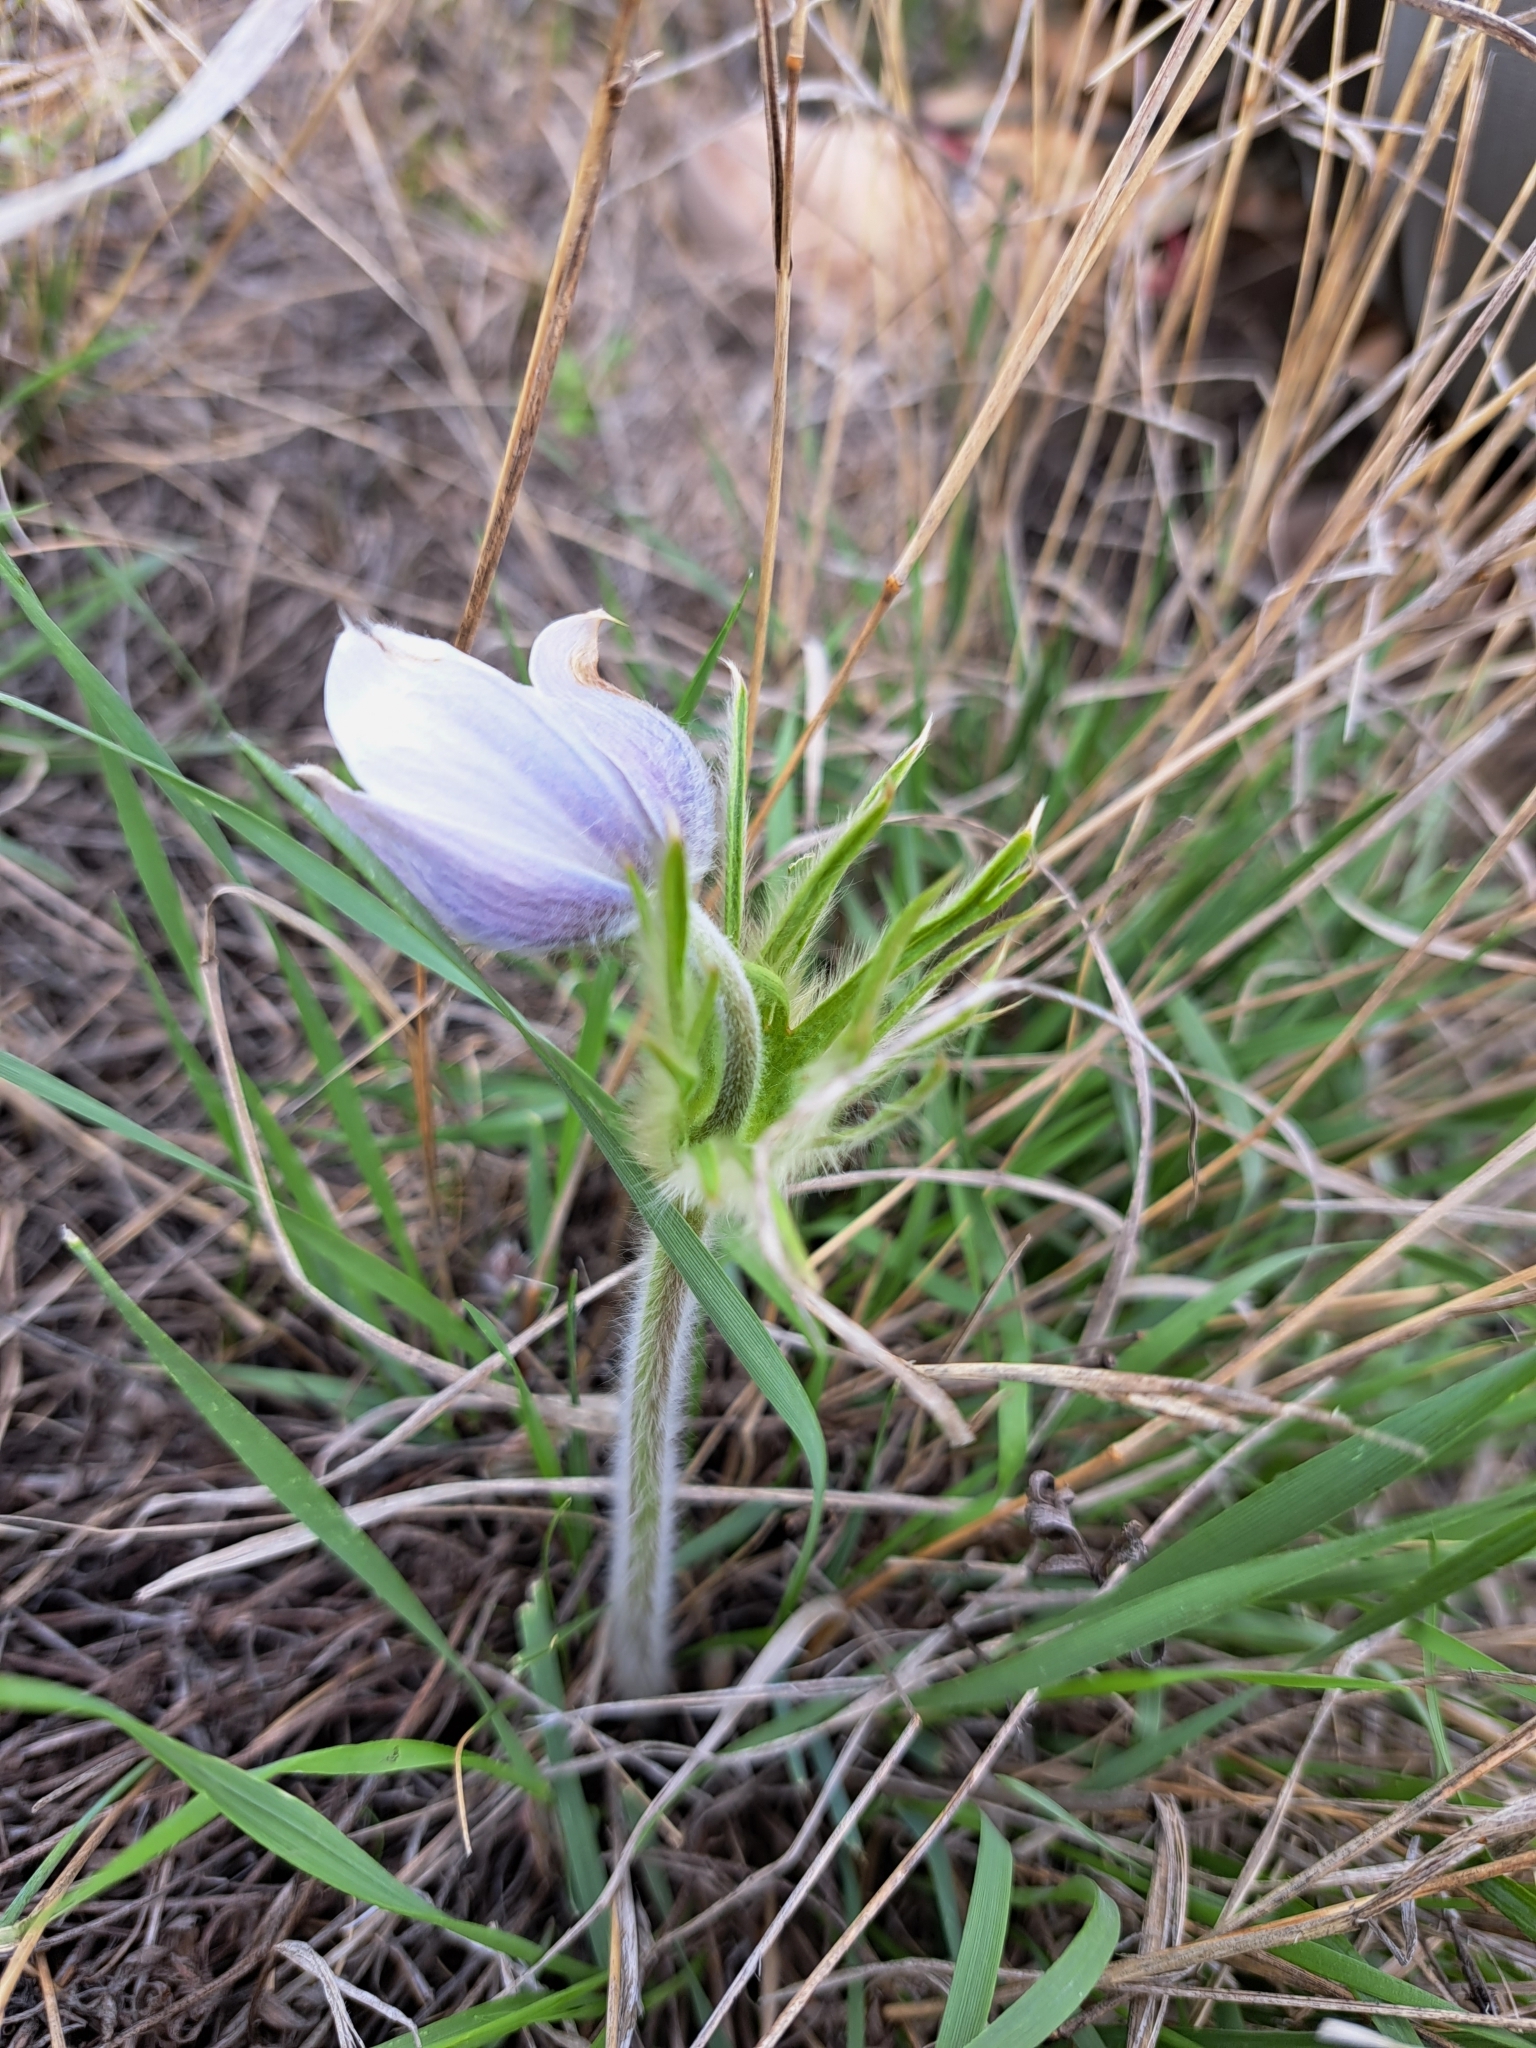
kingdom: Plantae
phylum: Tracheophyta
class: Magnoliopsida
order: Ranunculales
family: Ranunculaceae
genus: Pulsatilla
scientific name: Pulsatilla nuttalliana
